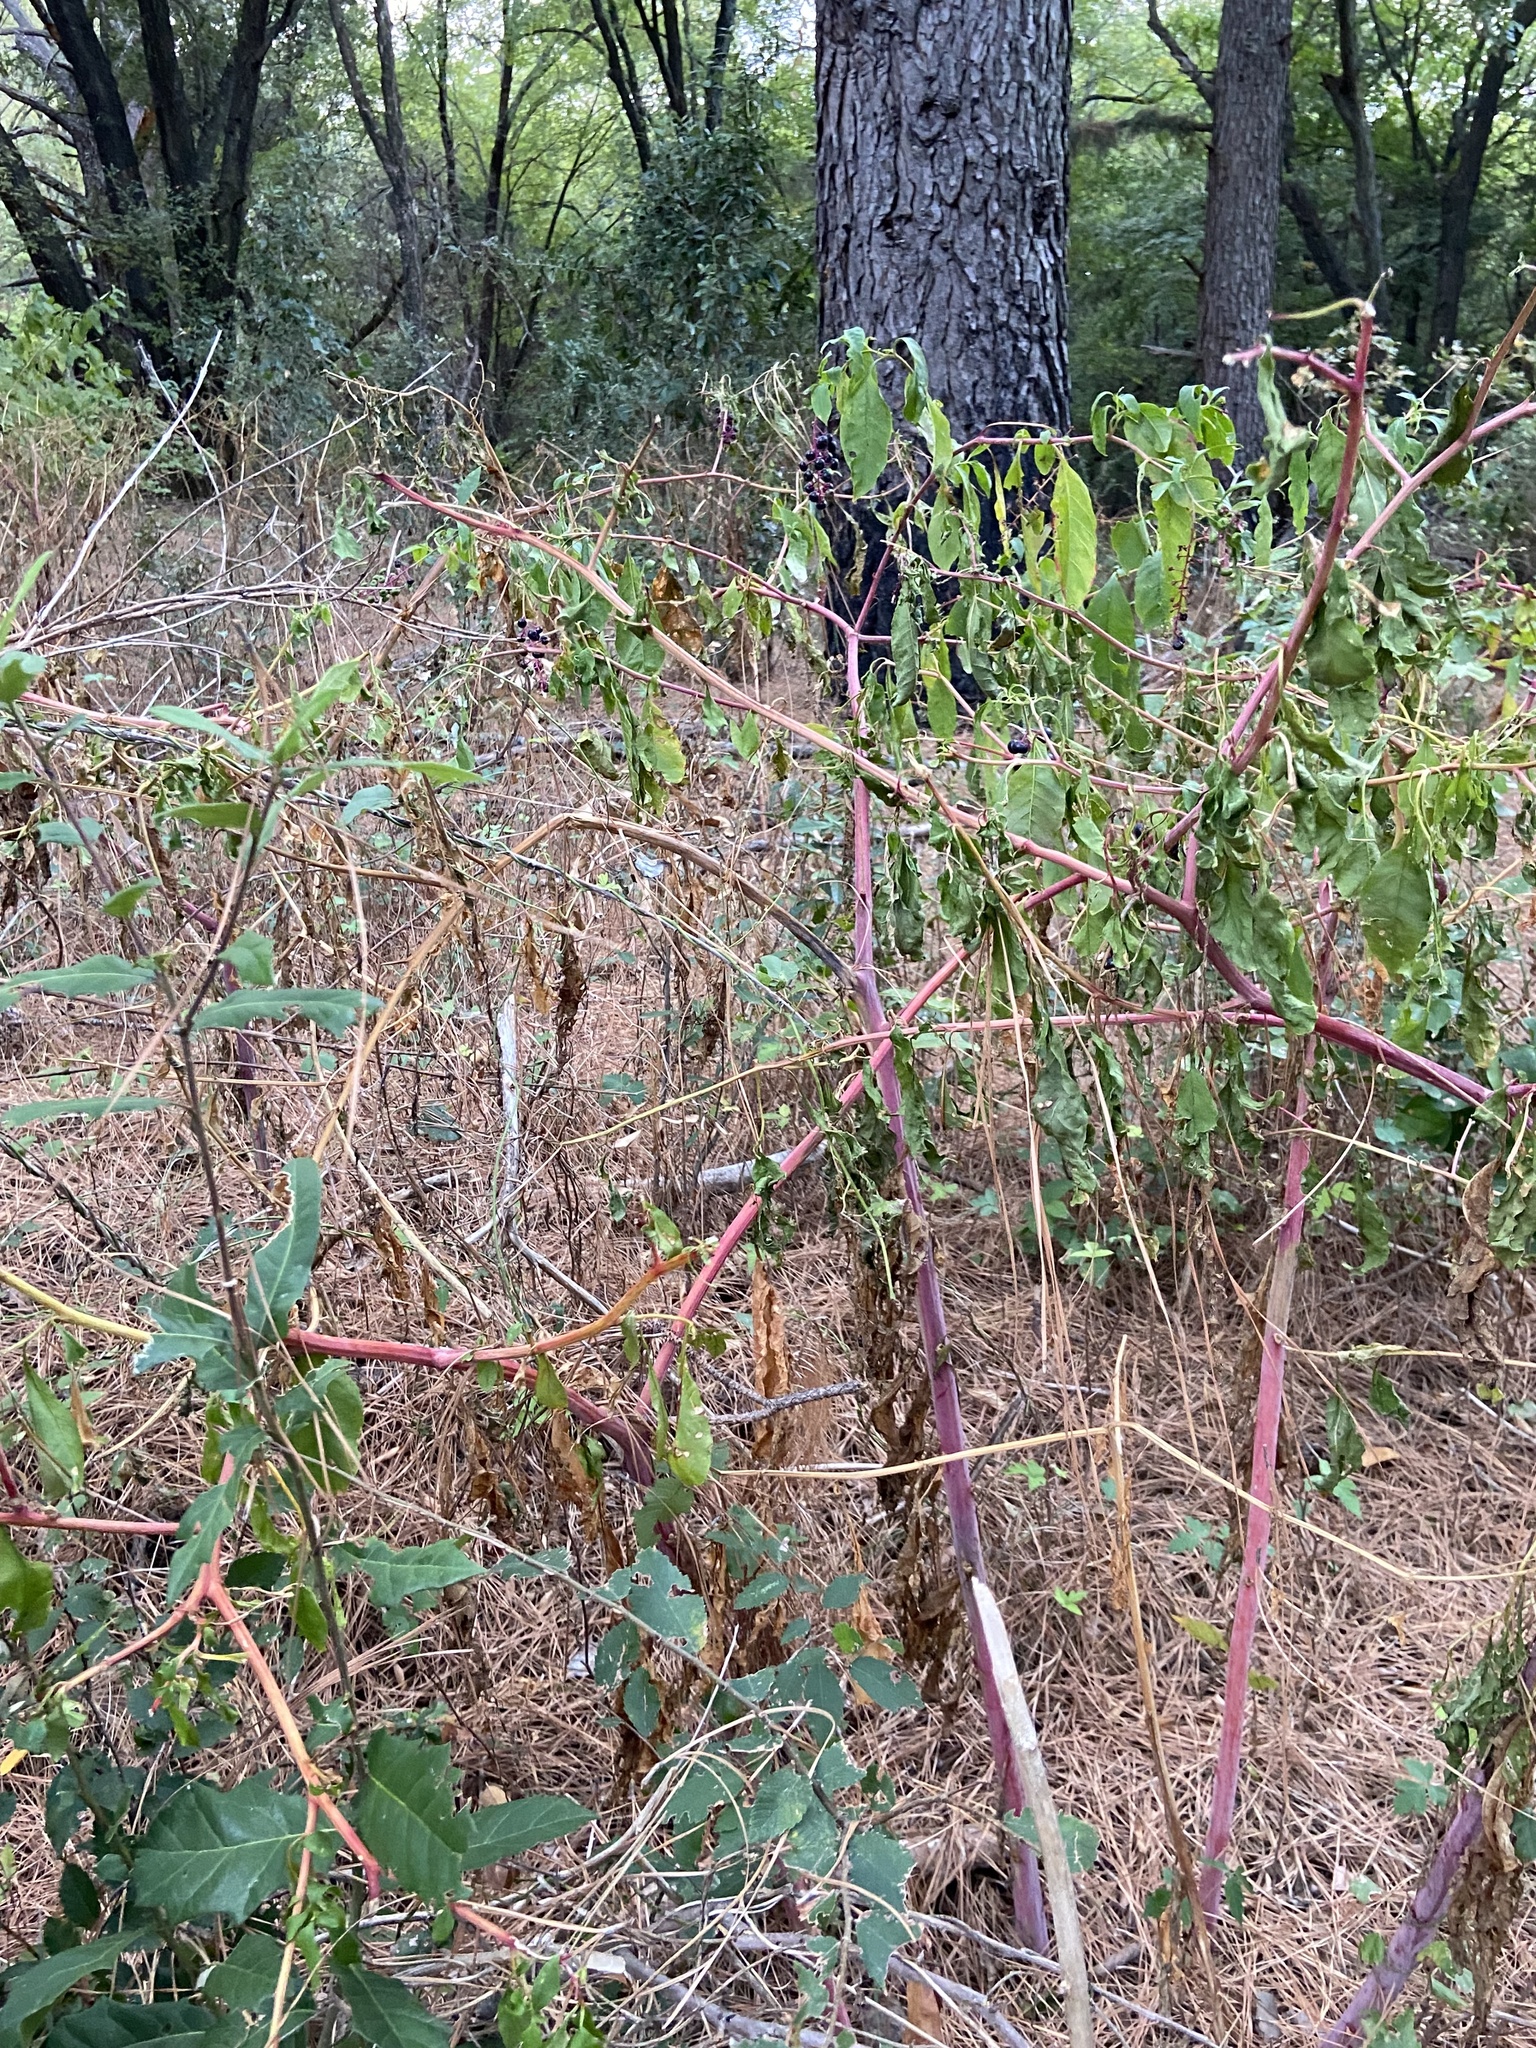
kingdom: Plantae
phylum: Tracheophyta
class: Magnoliopsida
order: Caryophyllales
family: Phytolaccaceae
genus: Phytolacca
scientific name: Phytolacca americana
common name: American pokeweed
